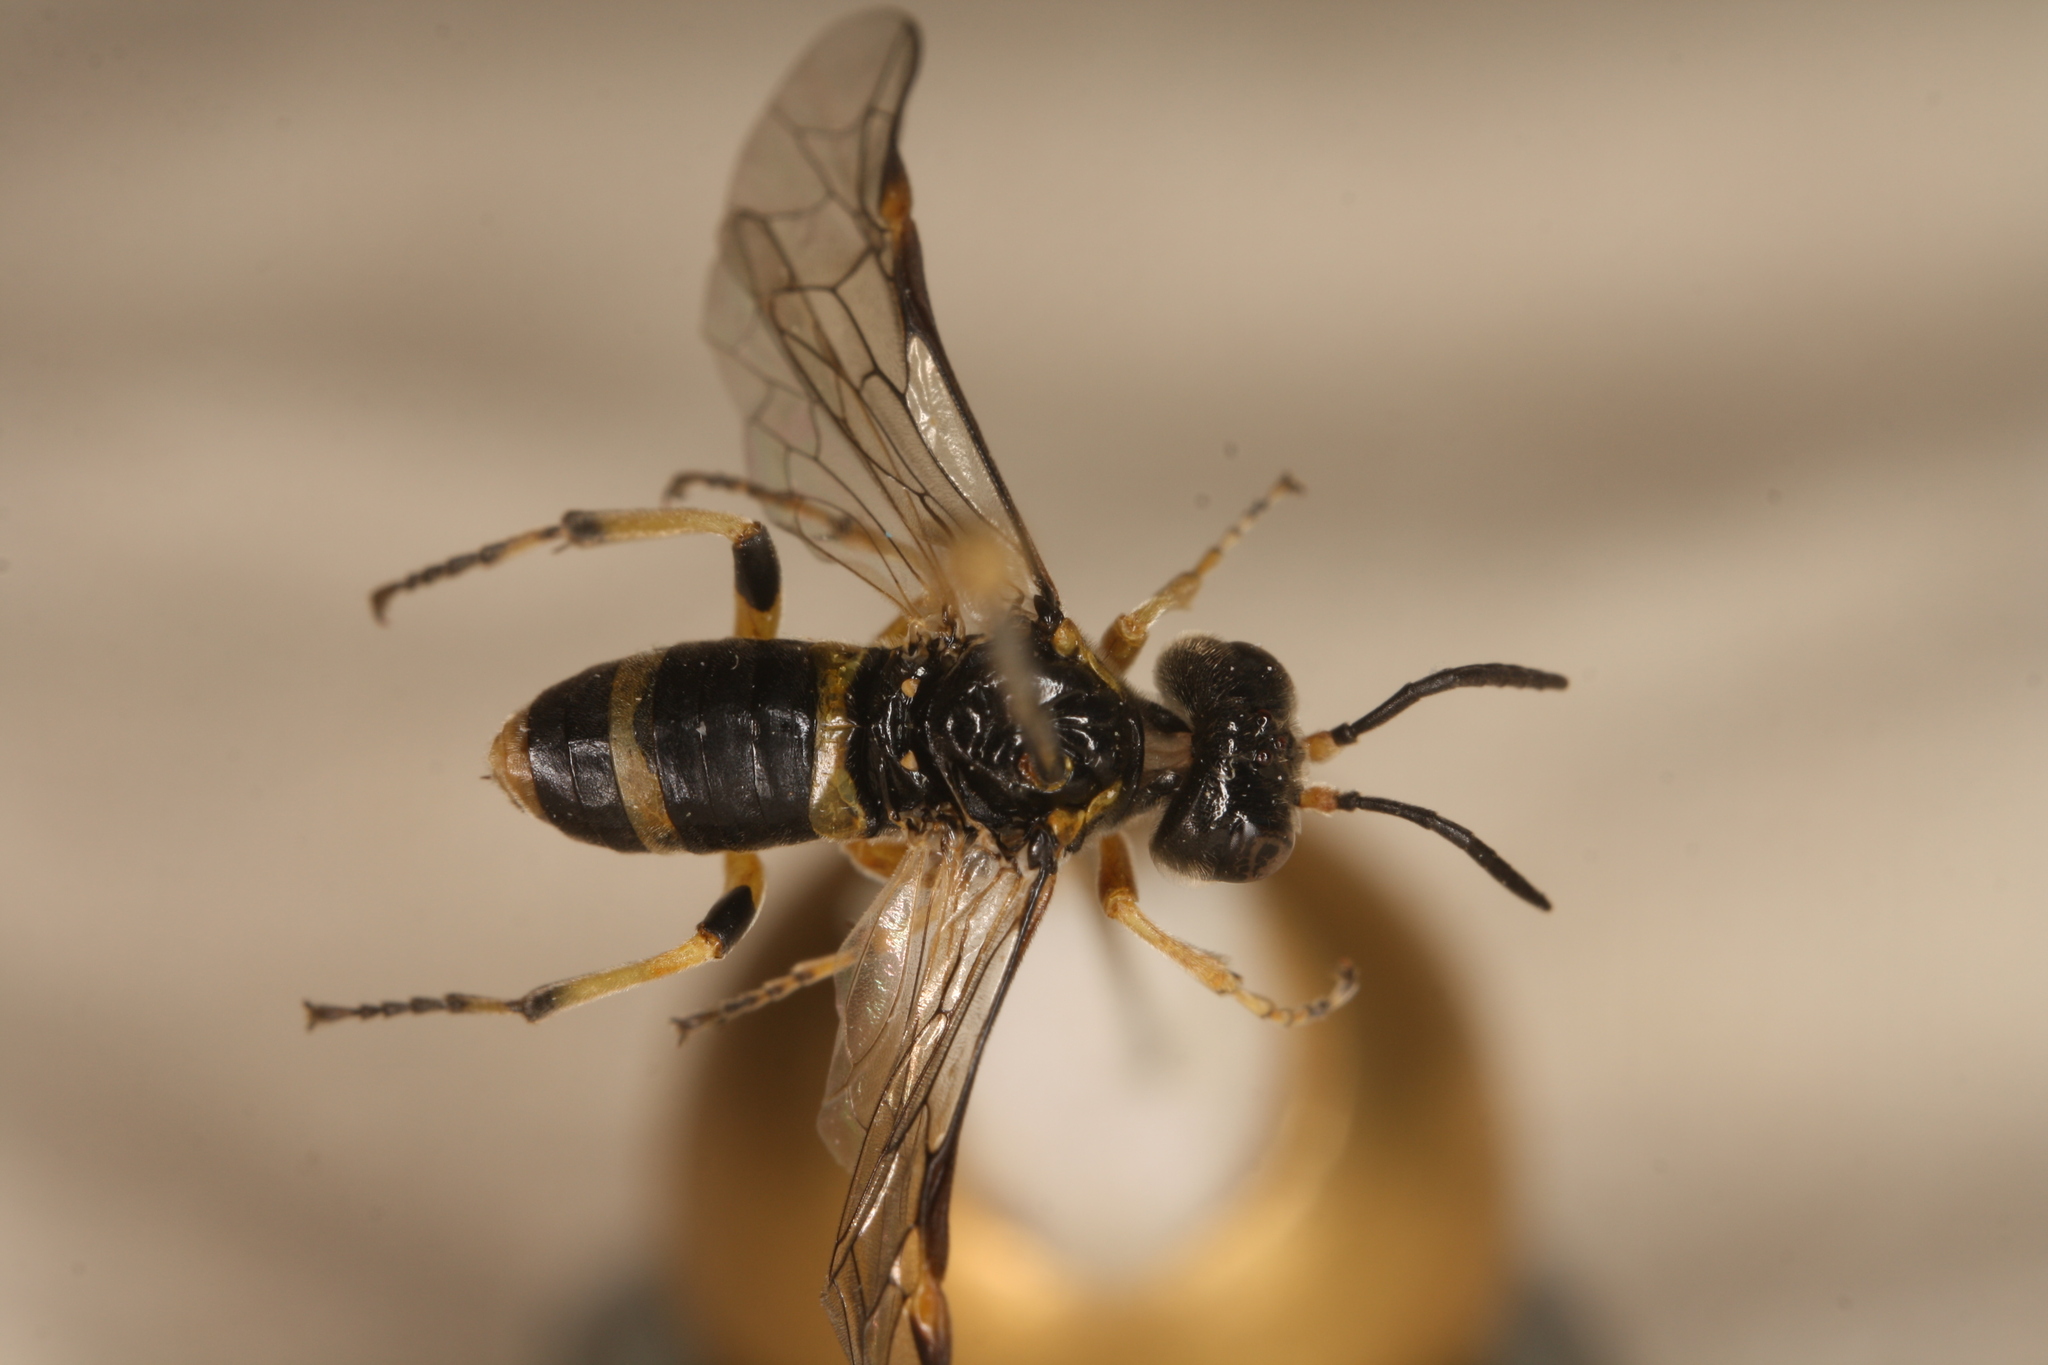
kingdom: Animalia
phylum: Arthropoda
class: Insecta
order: Hymenoptera
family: Tenthredinidae
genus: Tenthredo
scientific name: Tenthredo zonula
